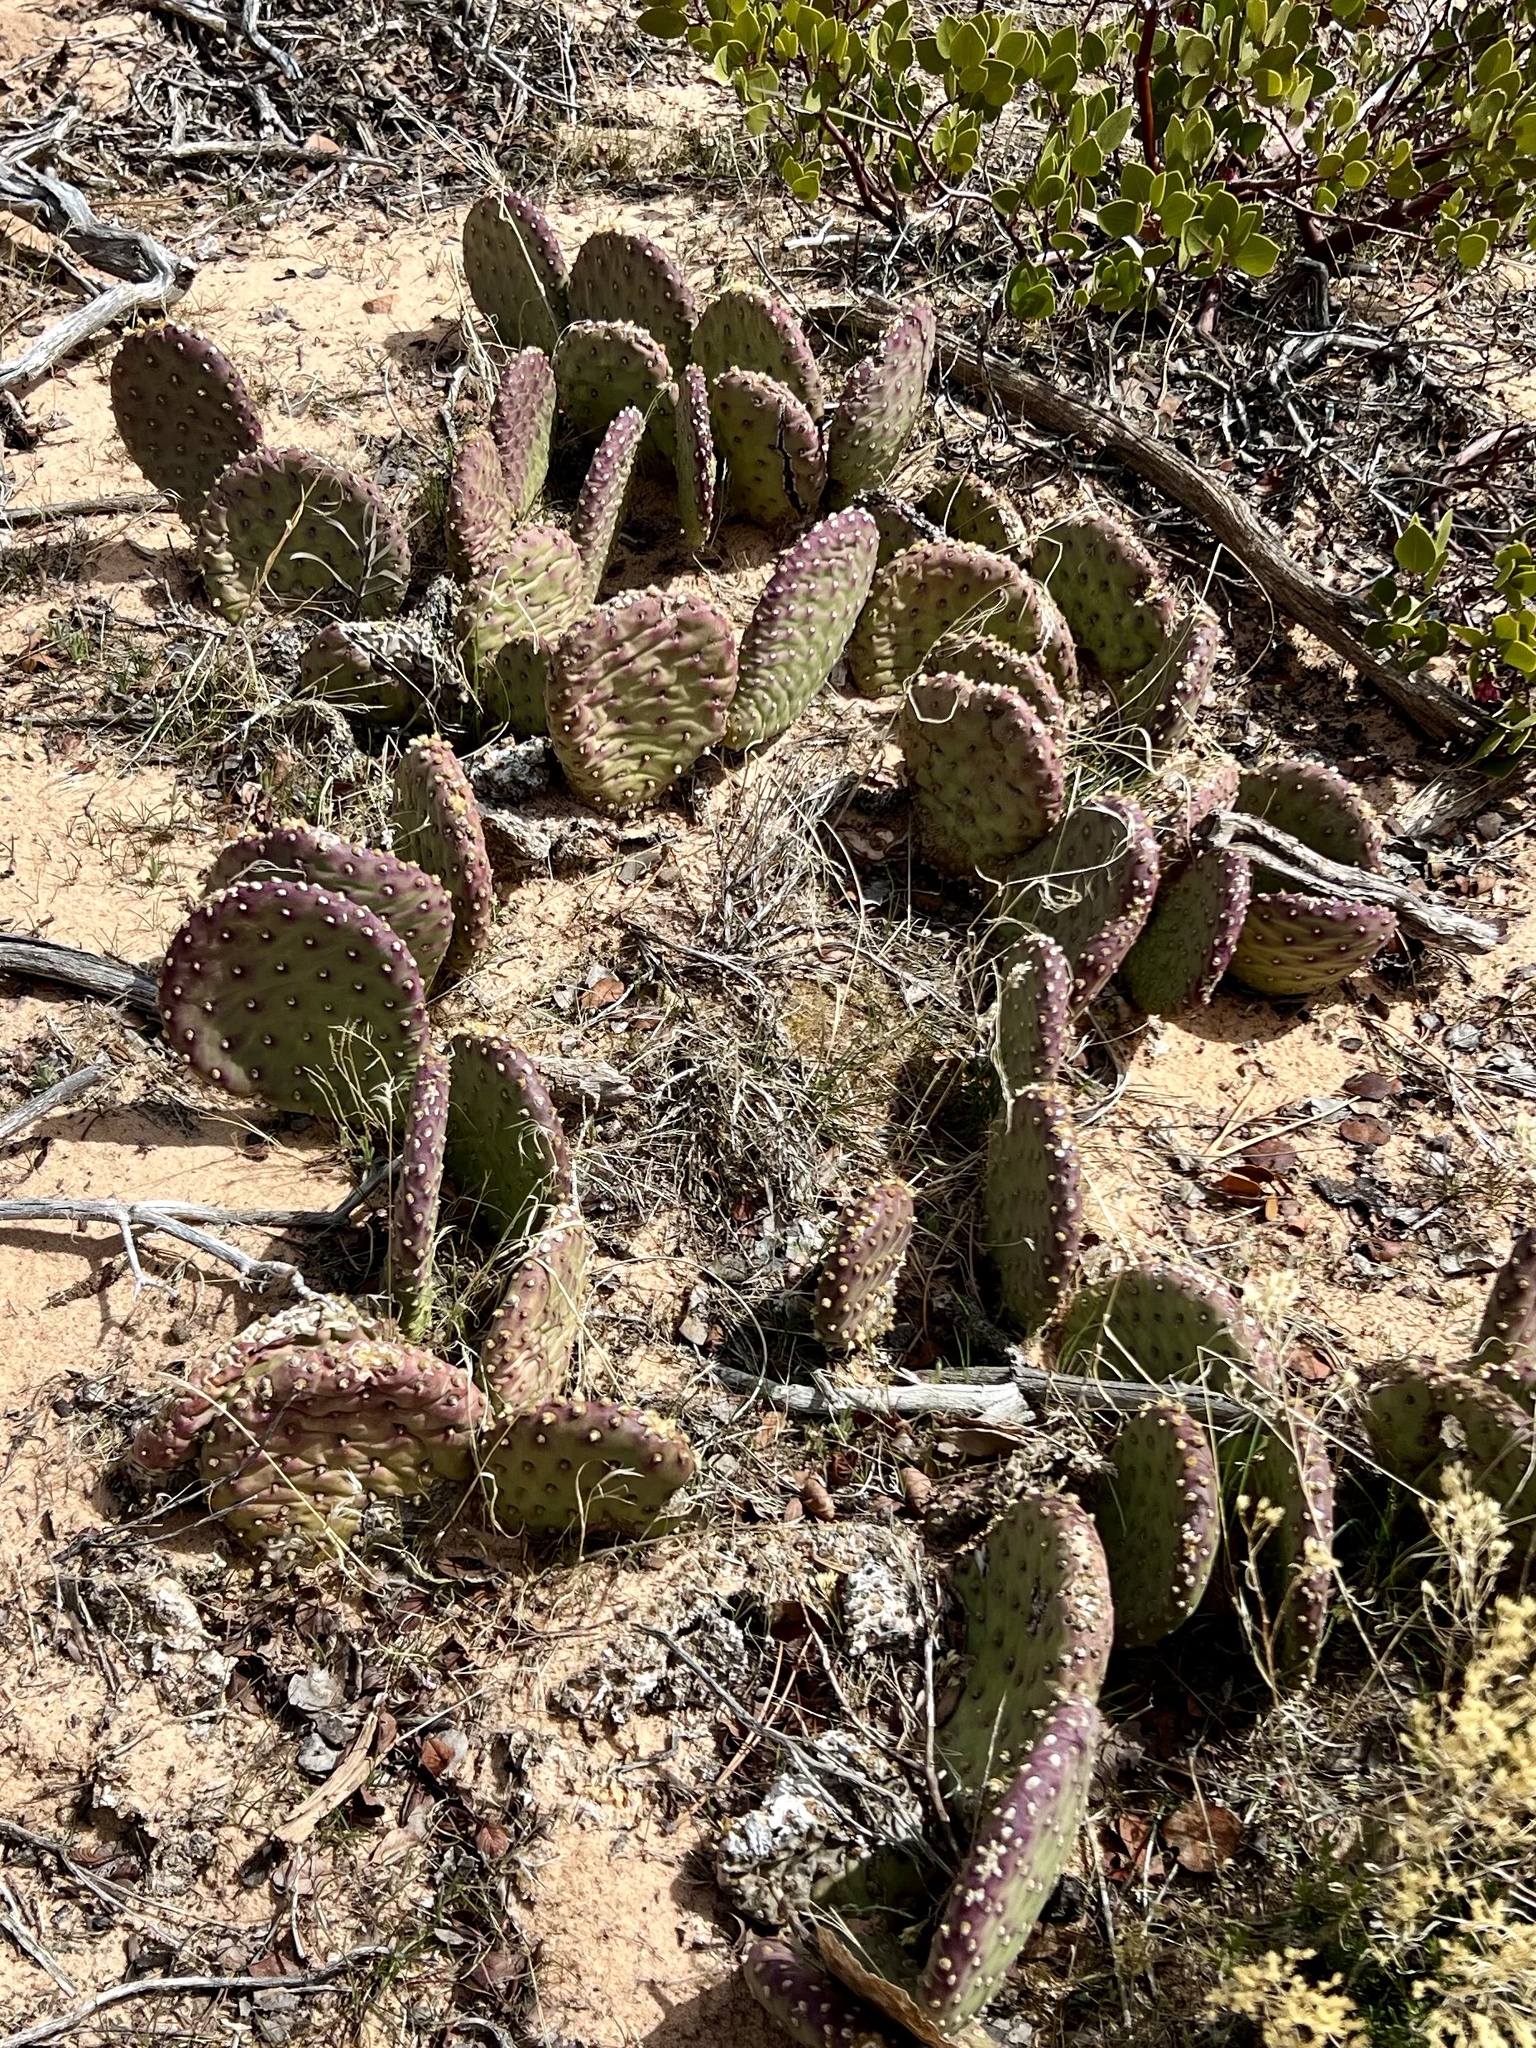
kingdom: Plantae
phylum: Tracheophyta
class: Magnoliopsida
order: Caryophyllales
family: Cactaceae
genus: Opuntia
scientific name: Opuntia aurea
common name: Golden prickly-pear
